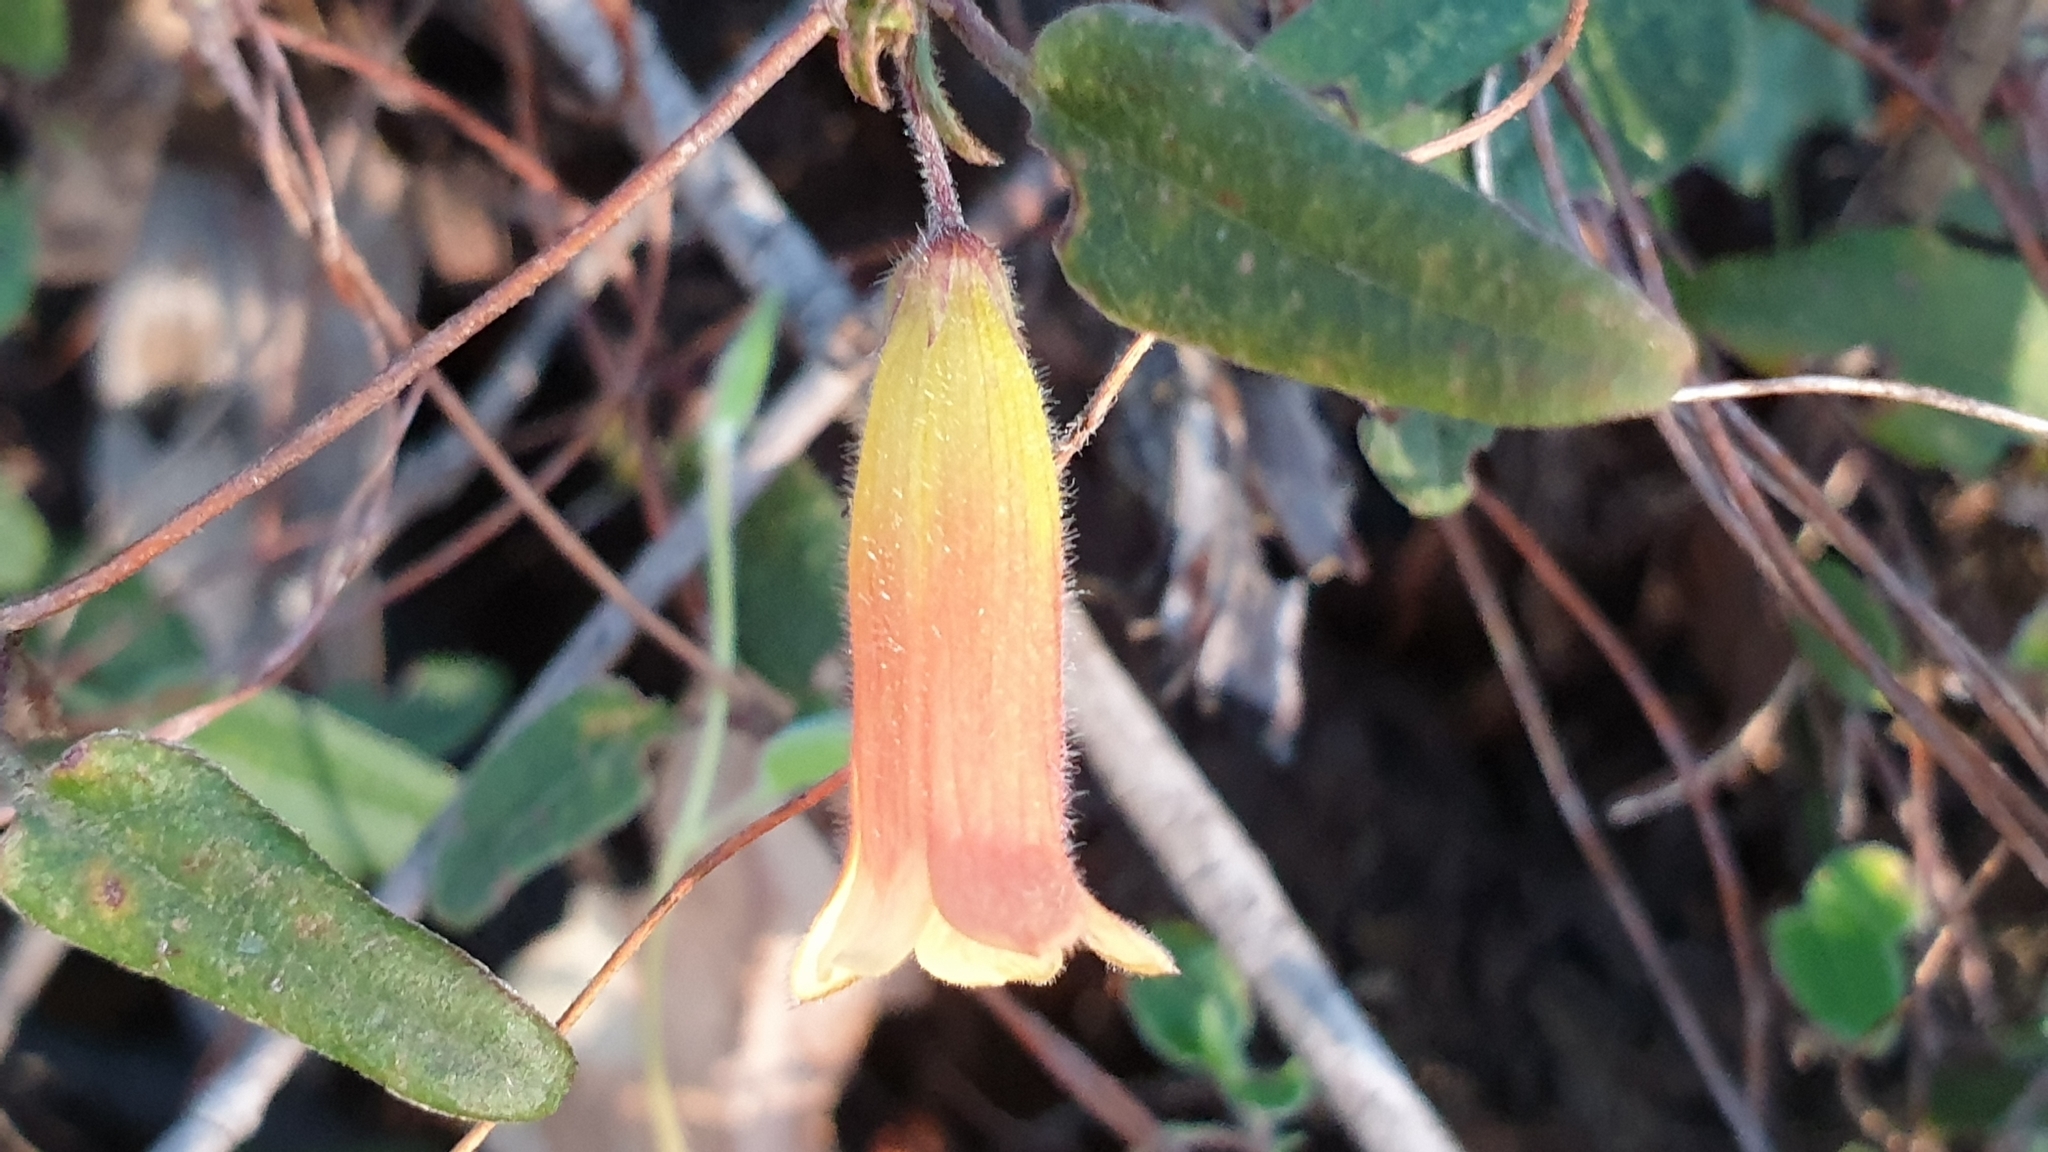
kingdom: Plantae
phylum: Tracheophyta
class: Magnoliopsida
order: Apiales
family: Pittosporaceae
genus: Marianthus
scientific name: Marianthus bignoniaceus
